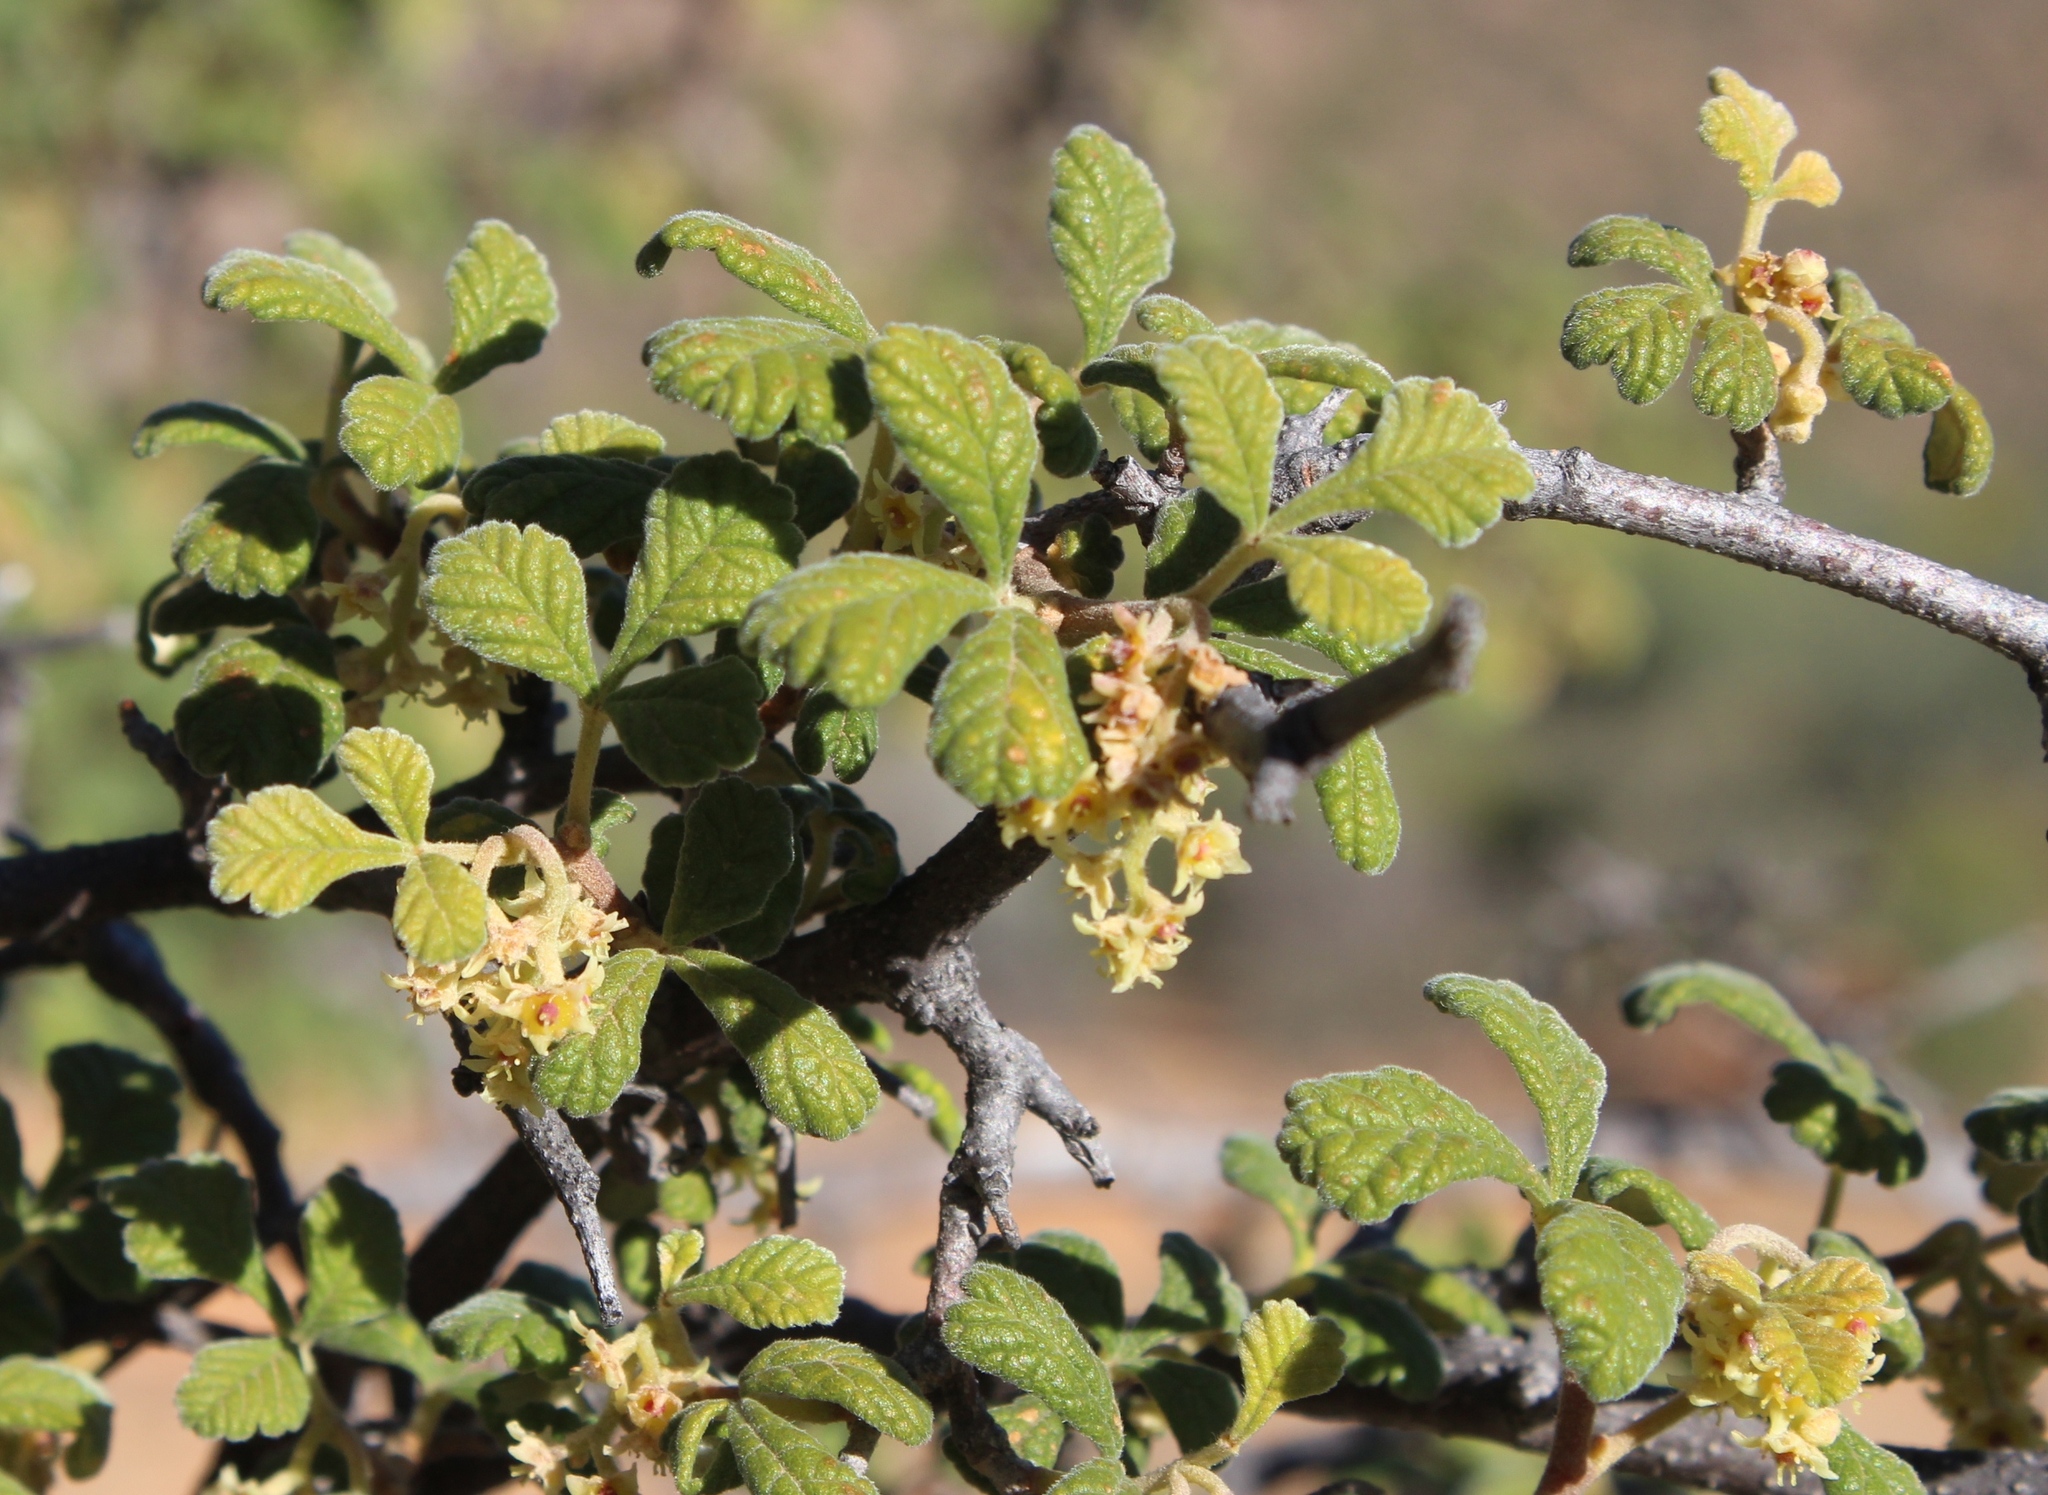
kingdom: Plantae
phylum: Tracheophyta
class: Magnoliopsida
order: Sapindales
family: Anacardiaceae
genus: Searsia
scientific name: Searsia incisa
